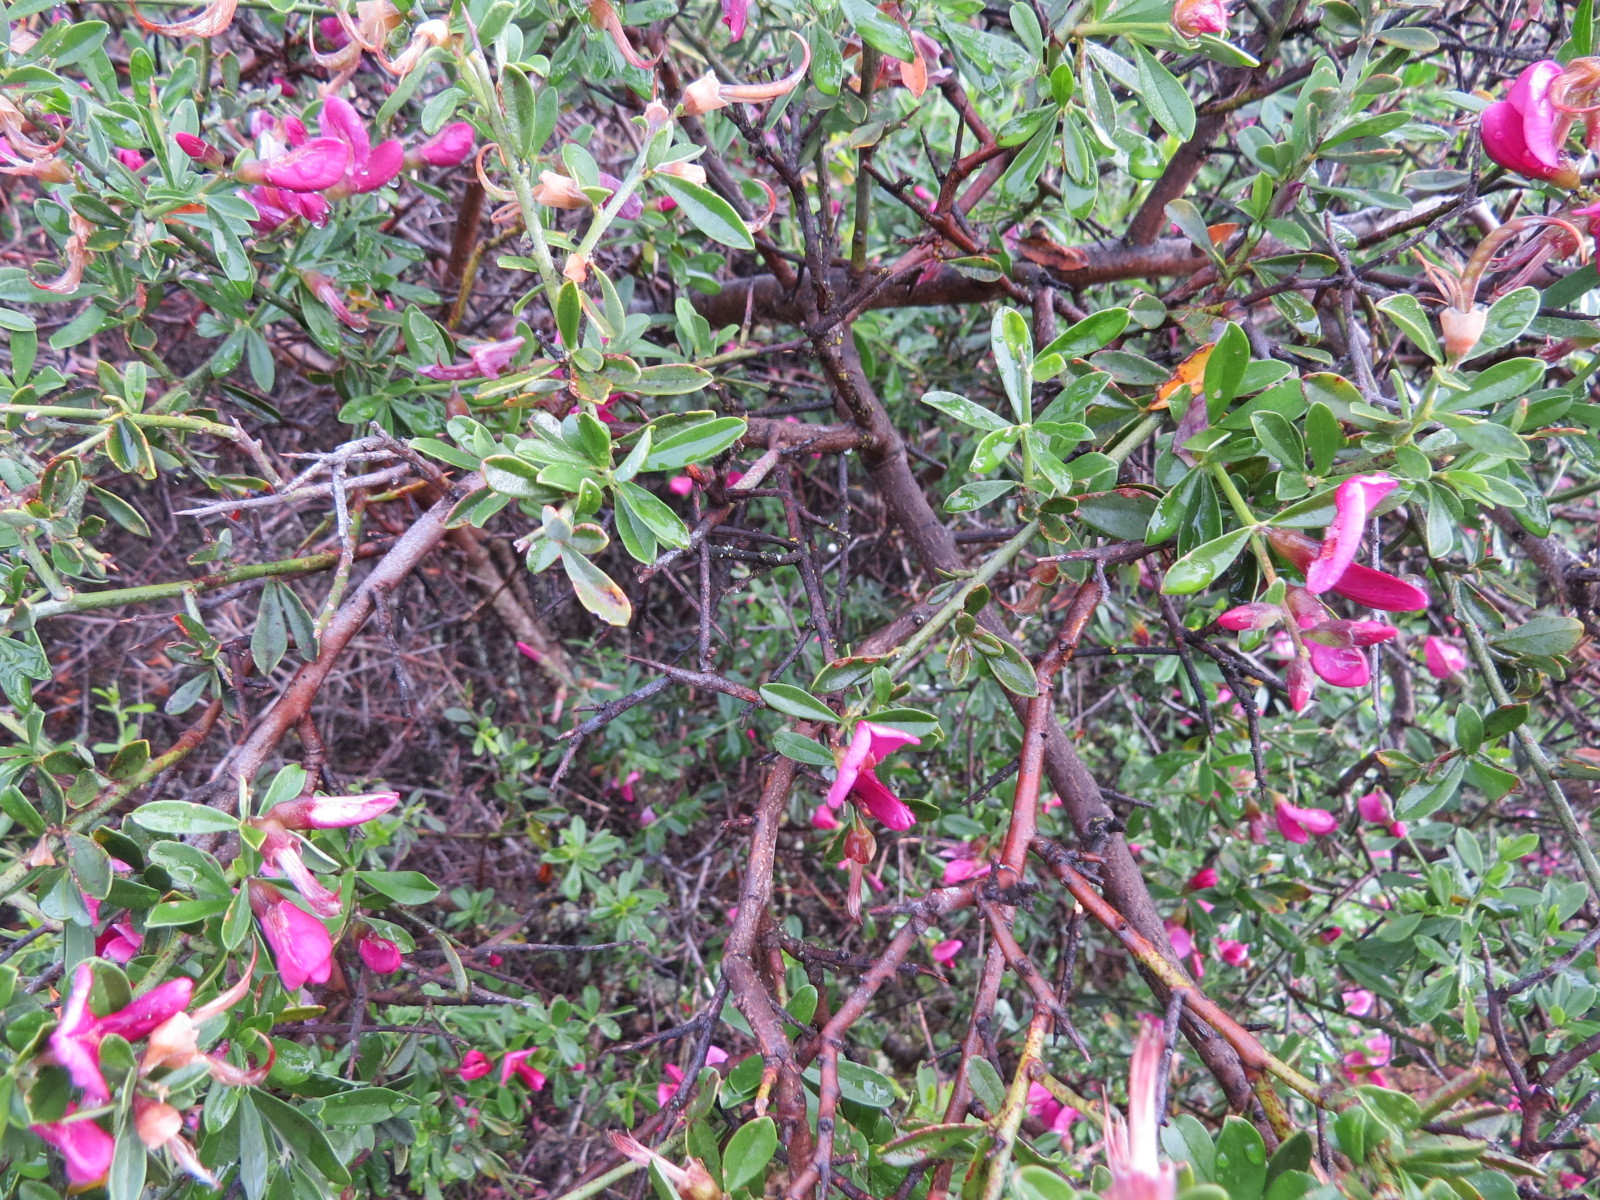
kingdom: Plantae
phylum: Tracheophyta
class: Magnoliopsida
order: Fabales
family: Fabaceae
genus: Pickeringia
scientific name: Pickeringia montana
